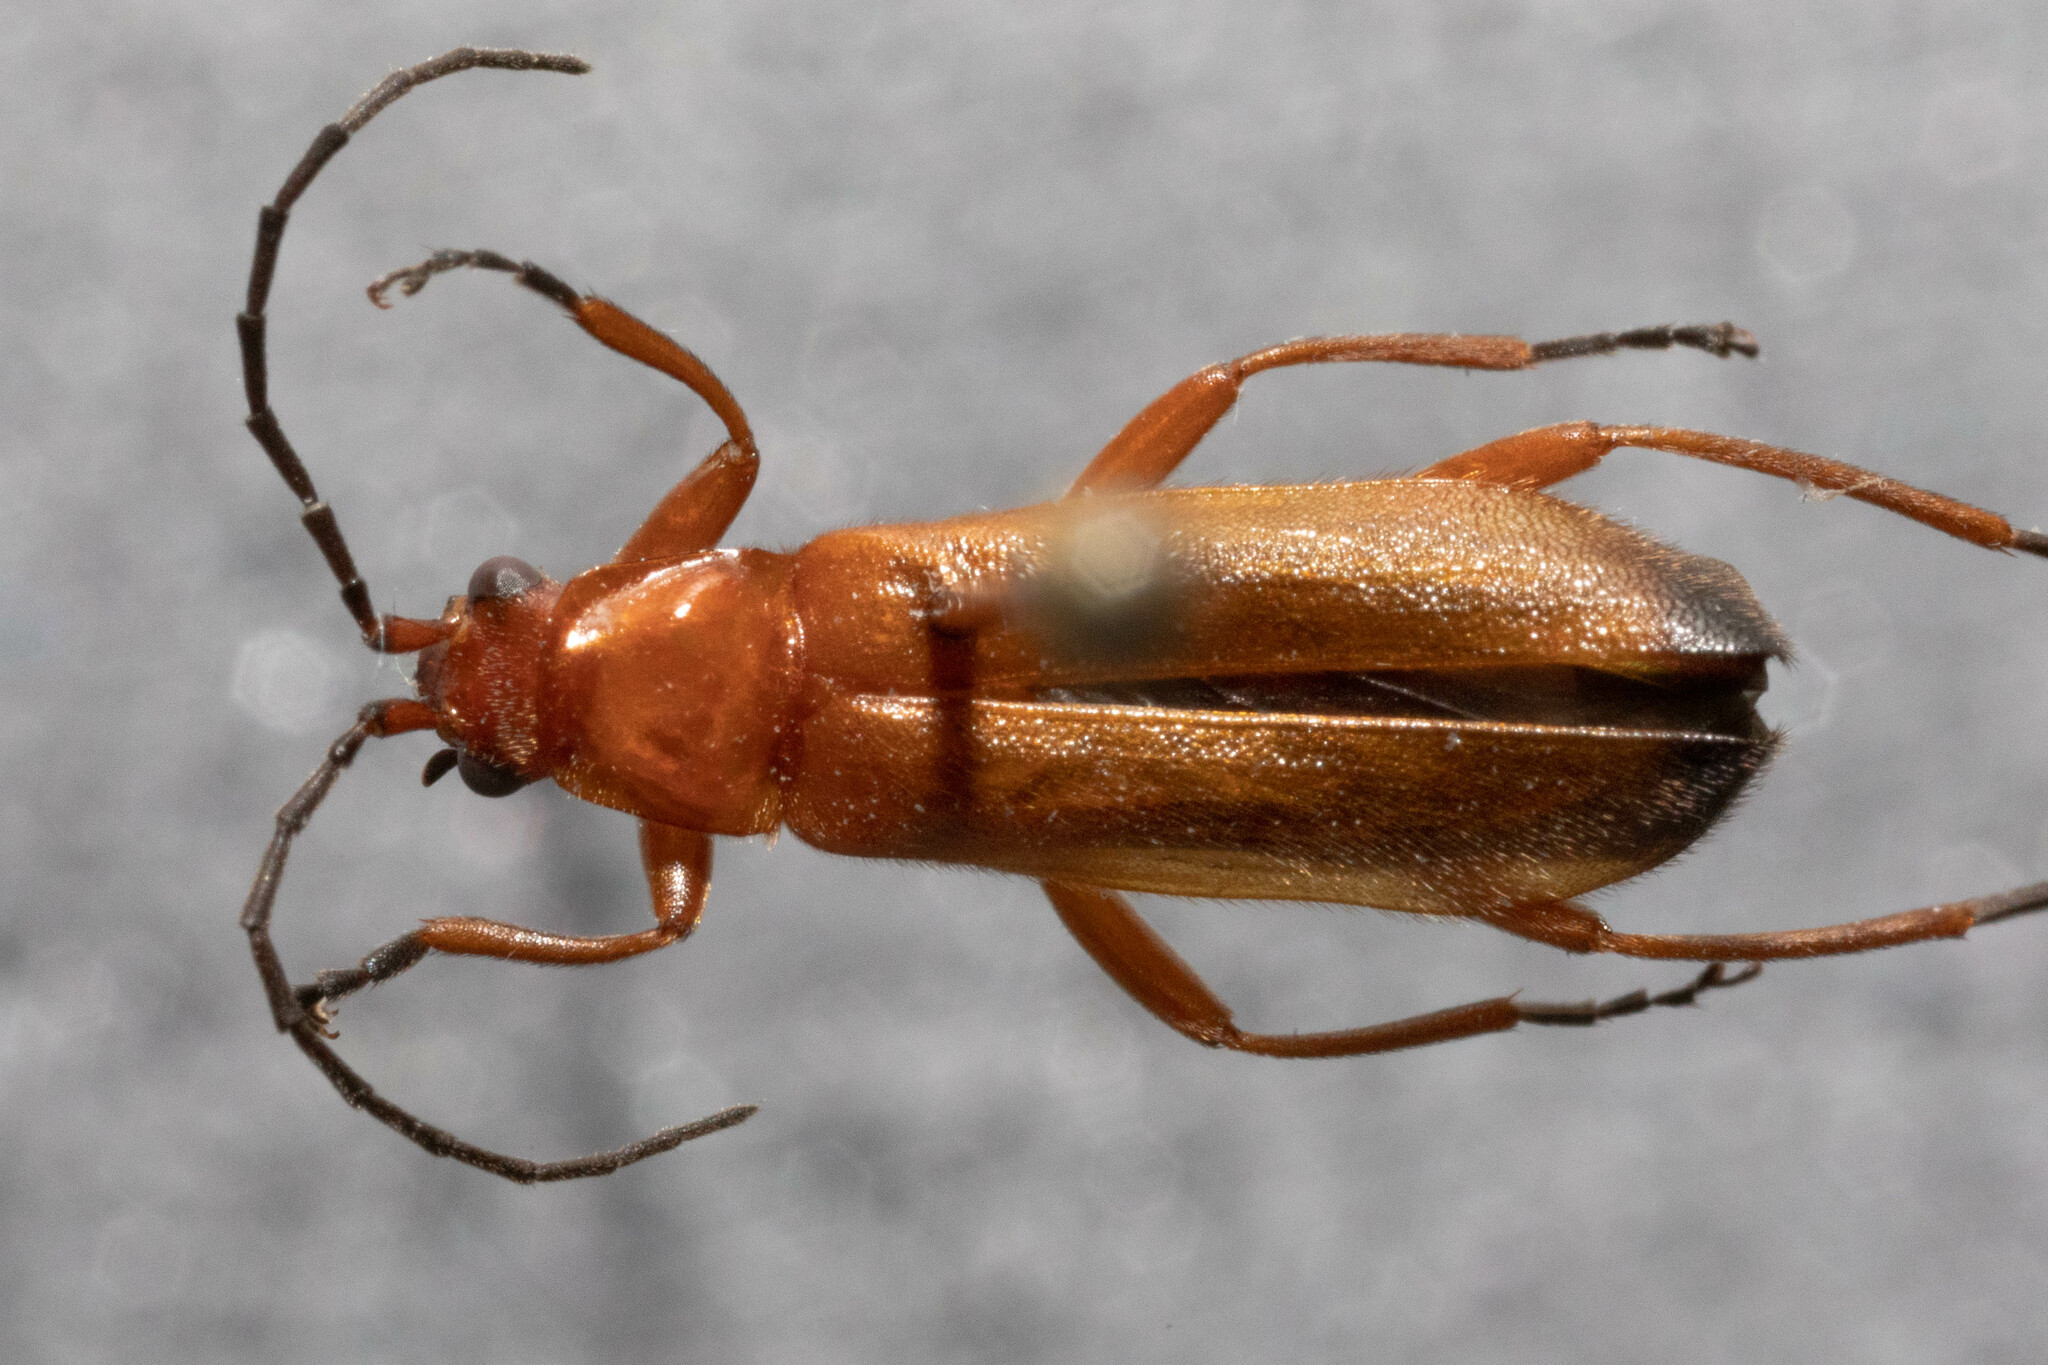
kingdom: Animalia
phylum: Arthropoda
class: Insecta
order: Coleoptera
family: Cantharidae
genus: Rhagonycha
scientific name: Rhagonycha fulva
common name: Common red soldier beetle
